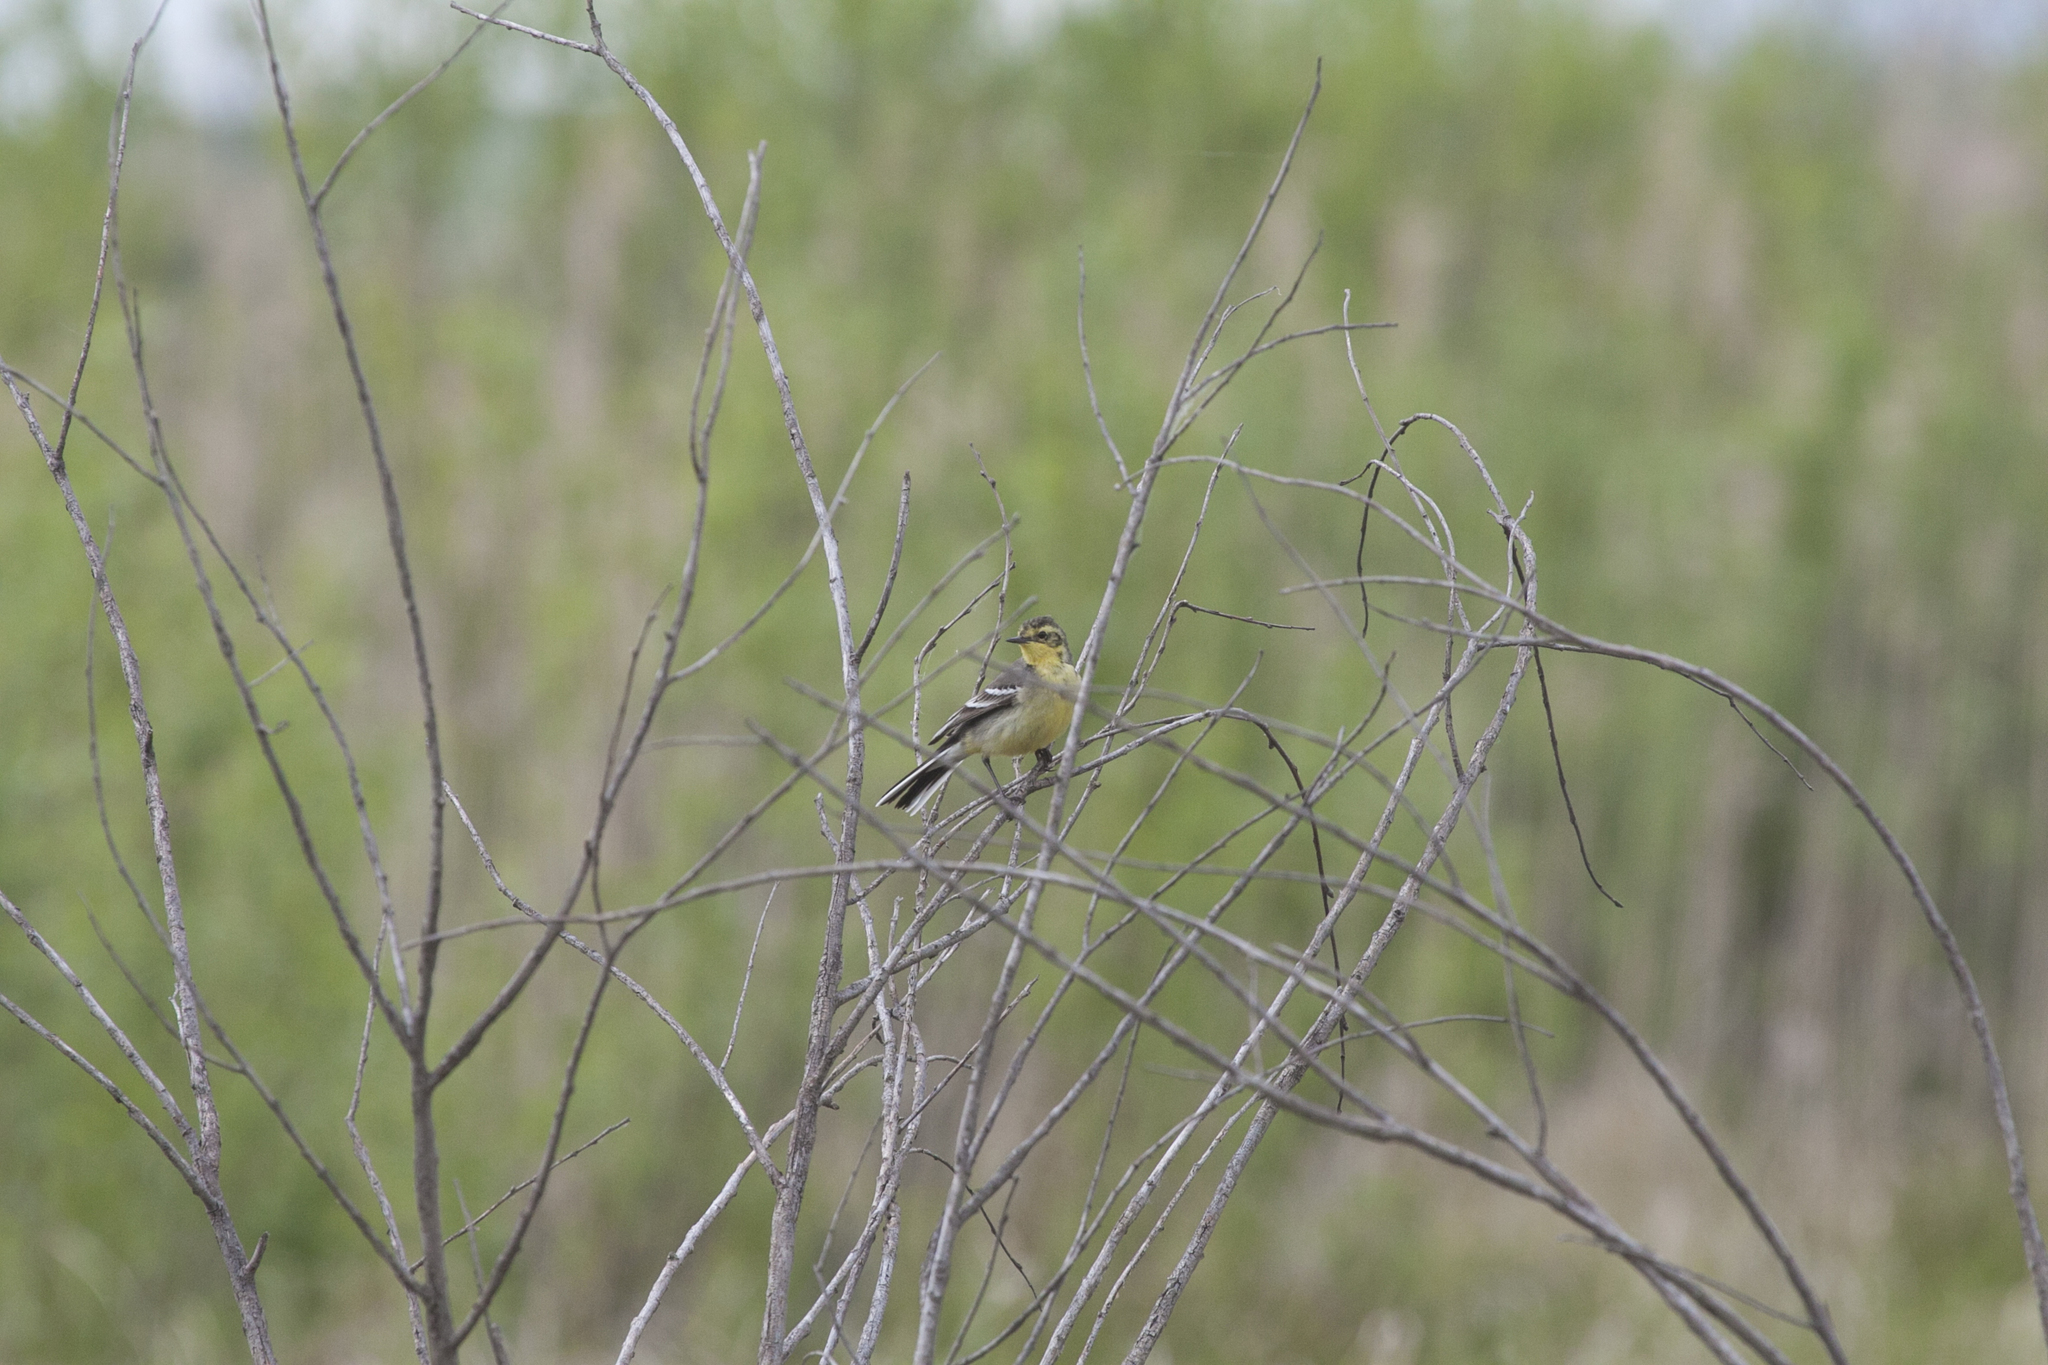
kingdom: Animalia
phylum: Chordata
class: Aves
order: Passeriformes
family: Motacillidae
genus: Motacilla
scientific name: Motacilla citreola
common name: Citrine wagtail
